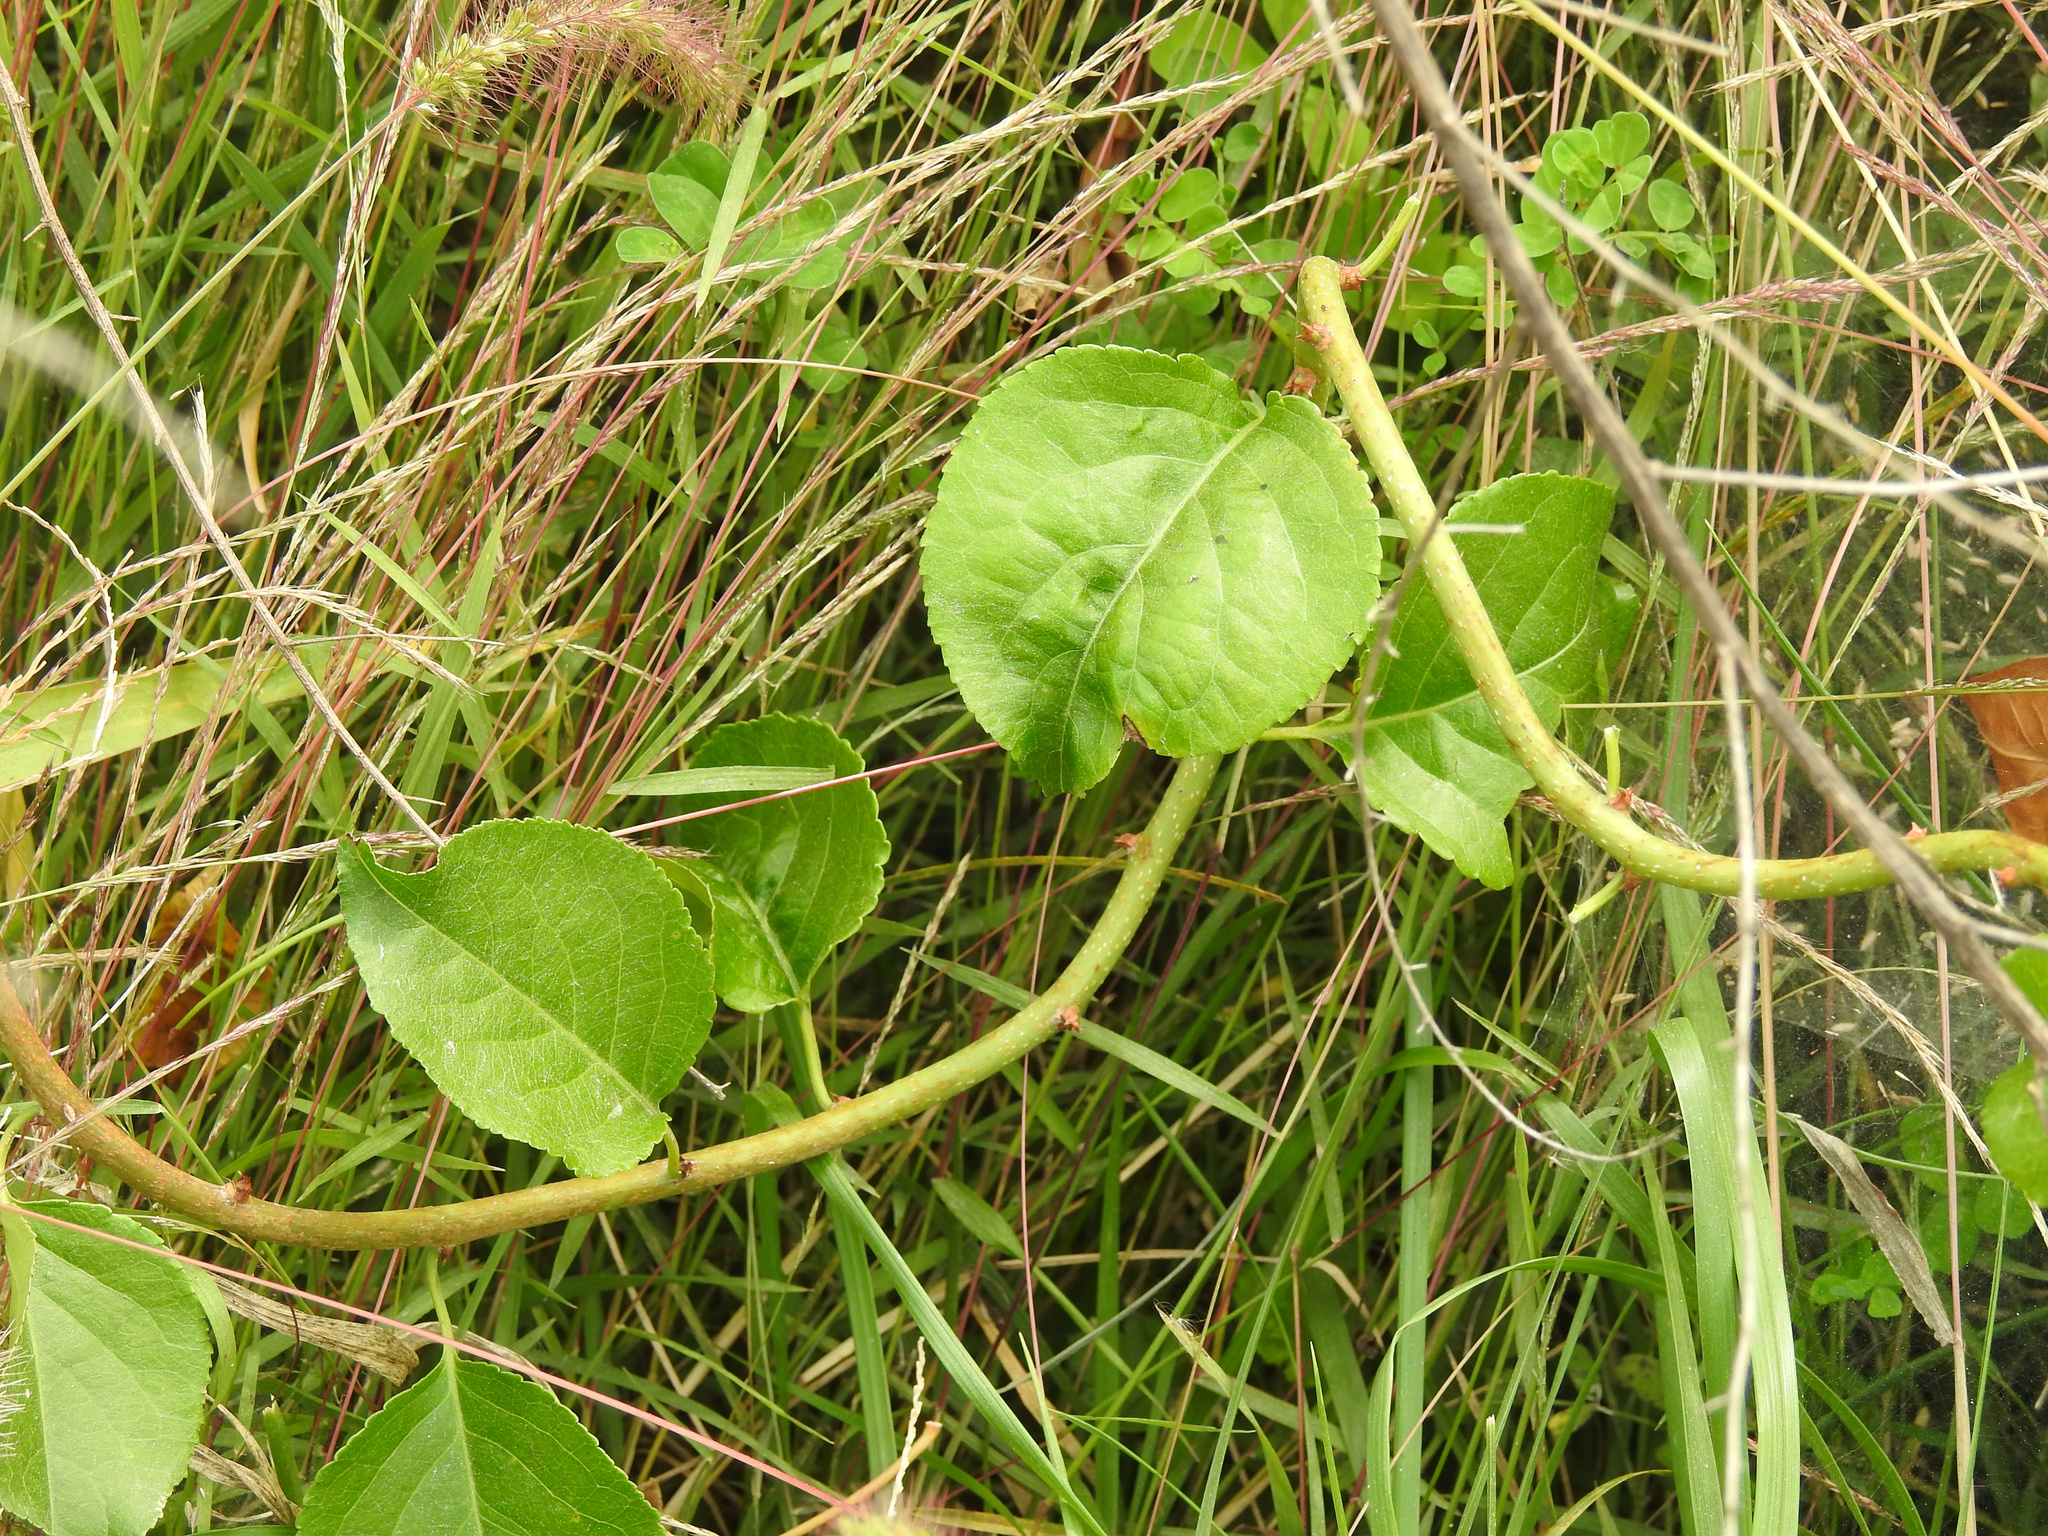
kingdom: Plantae
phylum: Tracheophyta
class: Magnoliopsida
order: Celastrales
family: Celastraceae
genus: Celastrus
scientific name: Celastrus orbiculatus
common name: Oriental bittersweet
